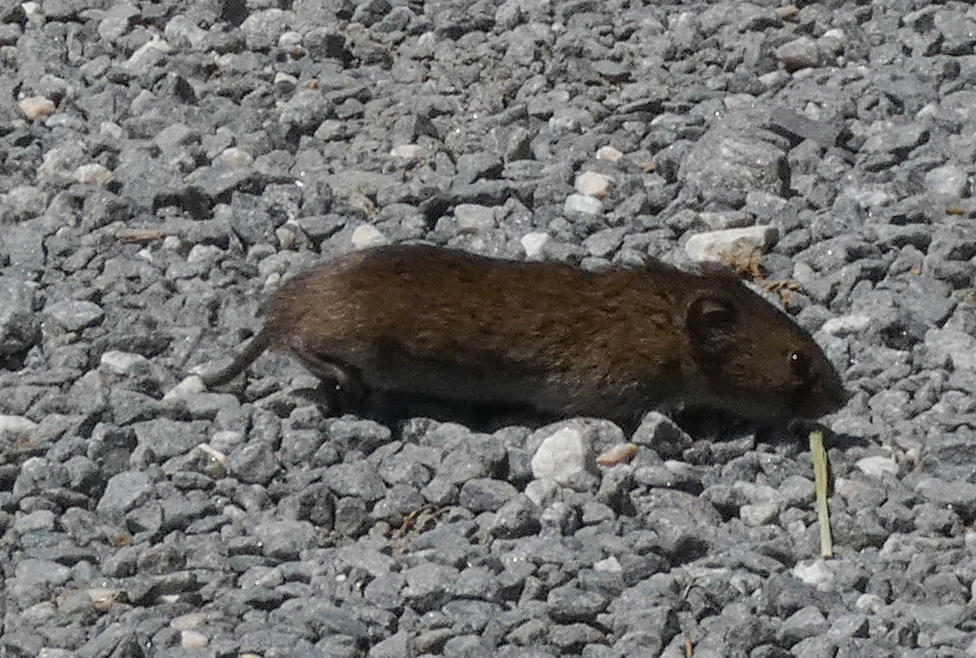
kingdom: Animalia
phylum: Chordata
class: Mammalia
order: Rodentia
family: Cricetidae
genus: Microtus
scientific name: Microtus pennsylvanicus
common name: Meadow vole
